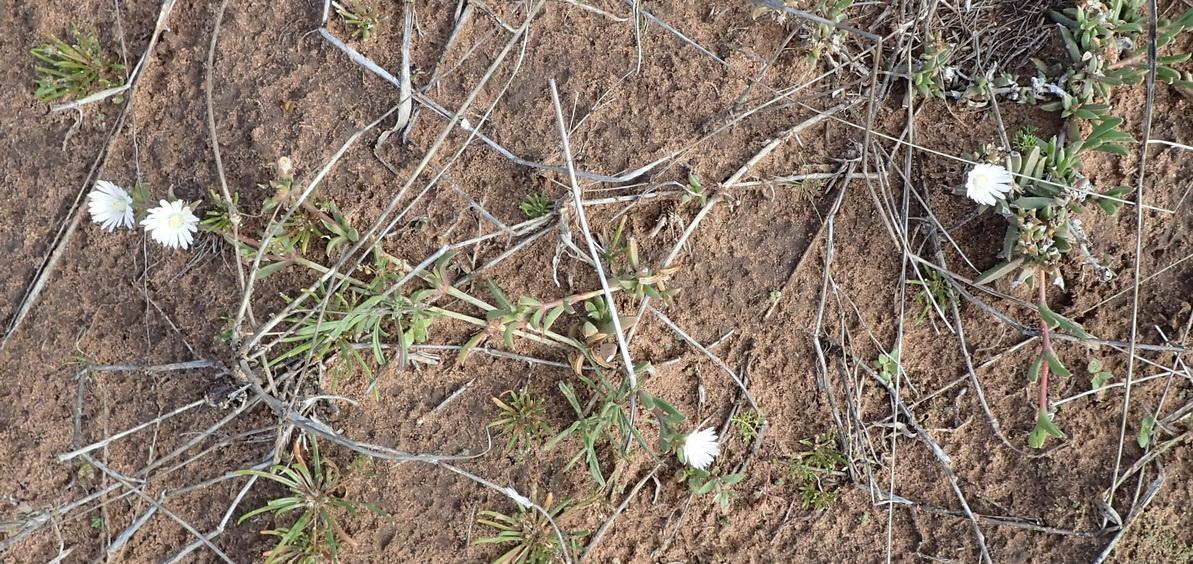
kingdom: Plantae
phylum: Tracheophyta
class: Magnoliopsida
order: Caryophyllales
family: Aizoaceae
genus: Delosperma
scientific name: Delosperma litorale
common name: Seaside delosperma
